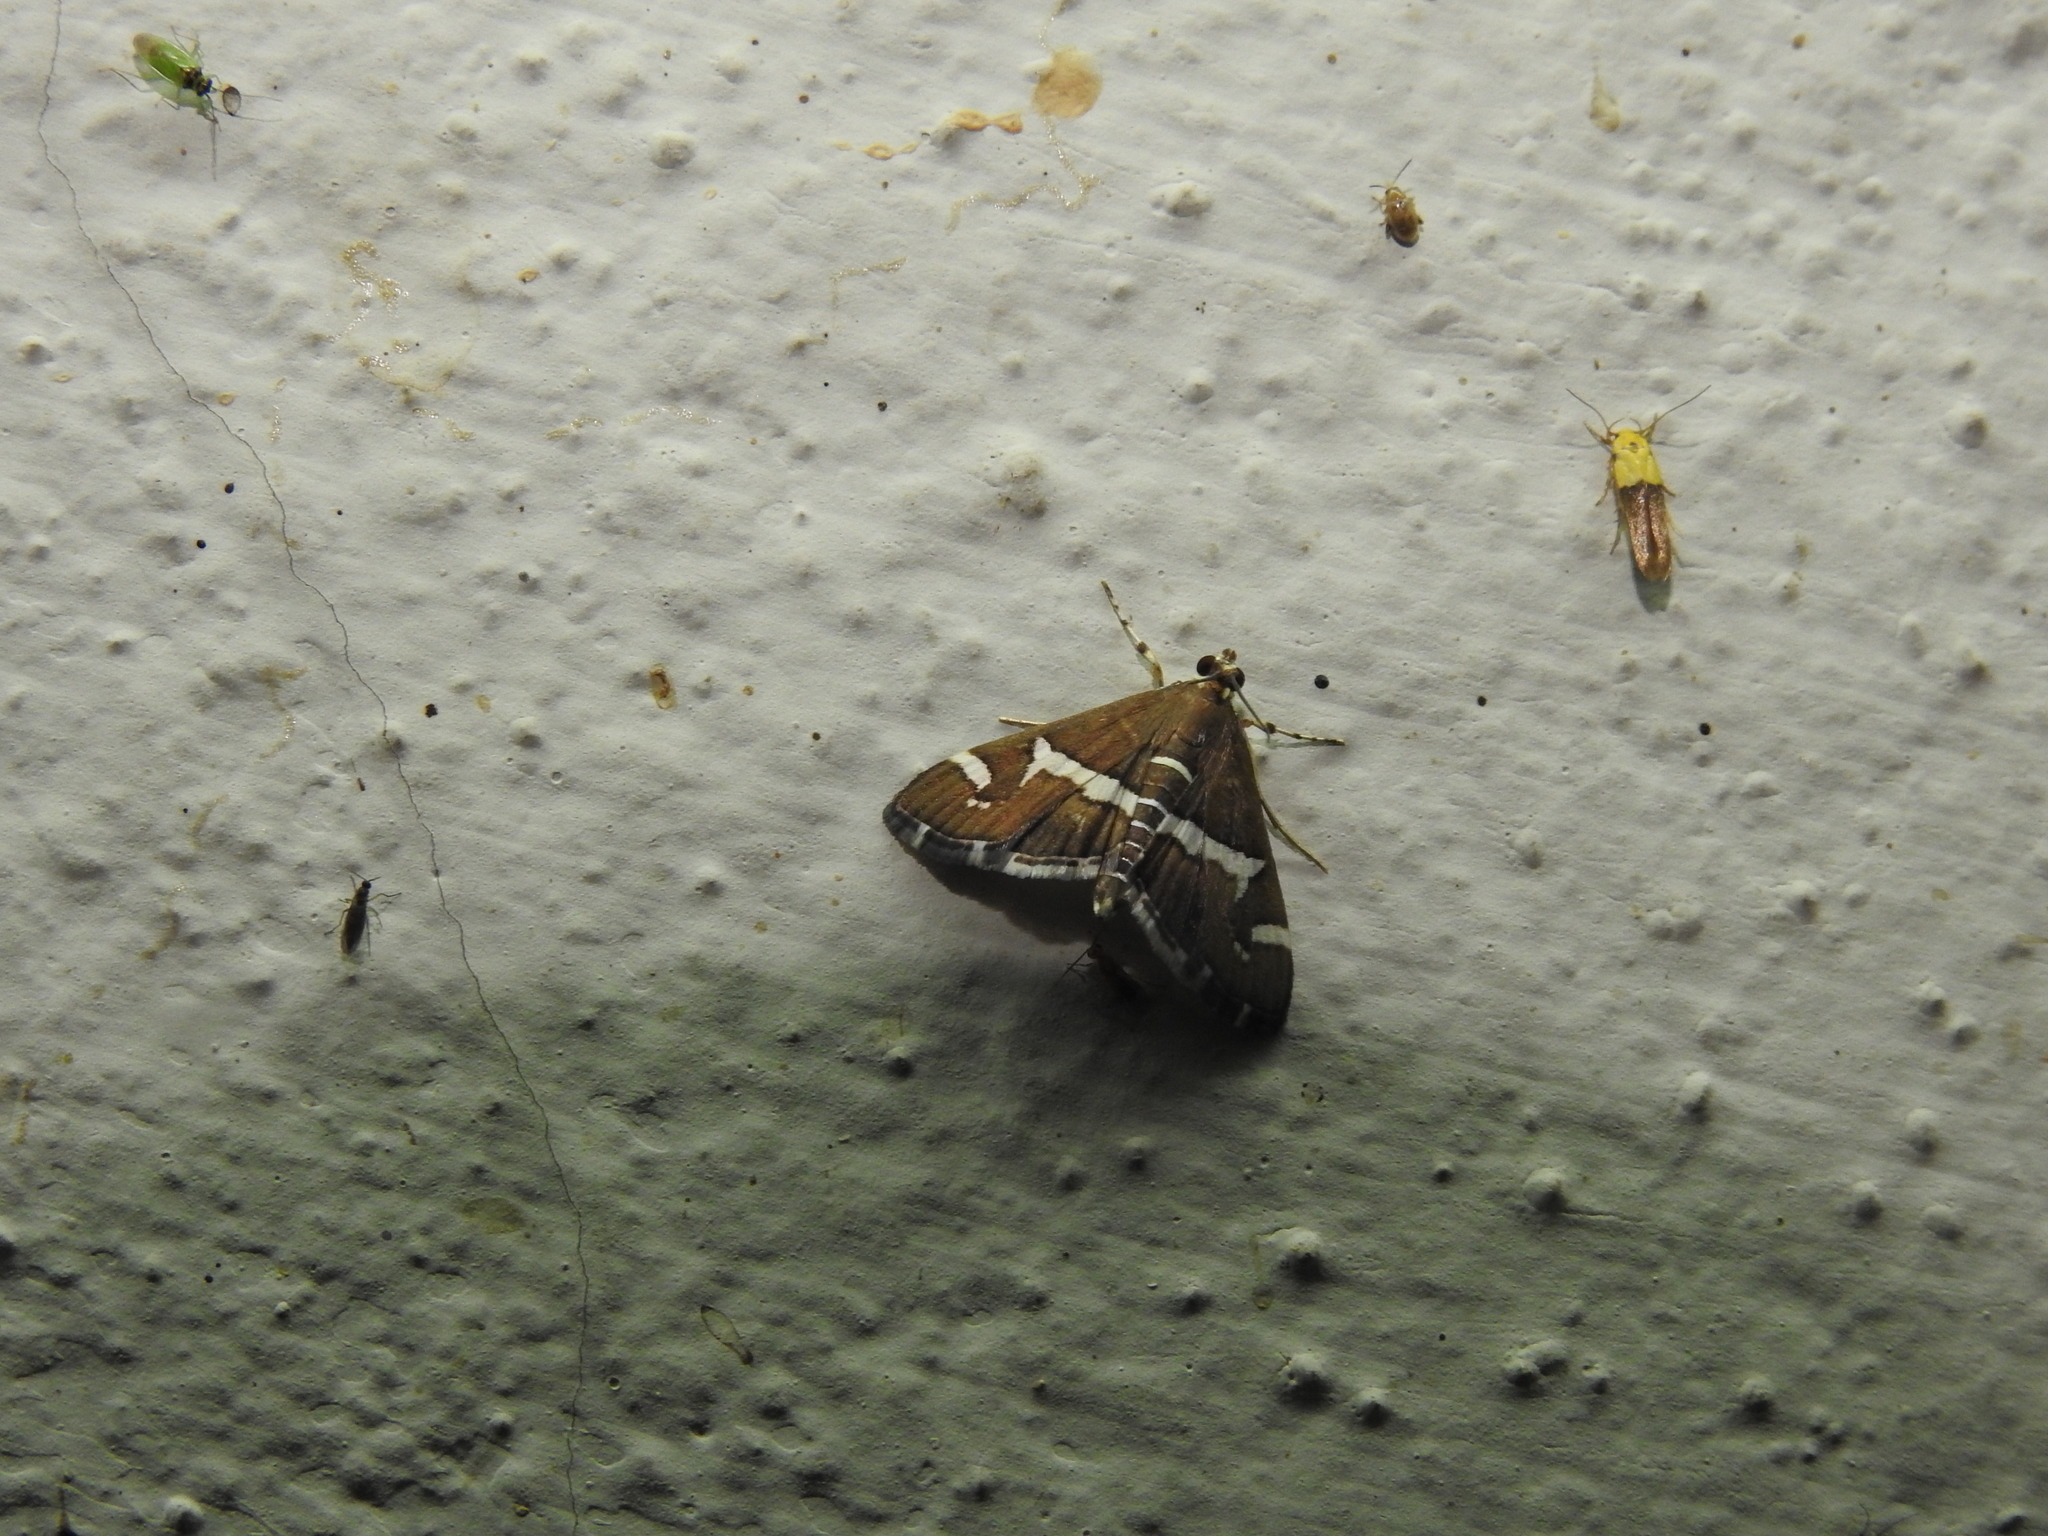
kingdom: Animalia
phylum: Arthropoda
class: Insecta
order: Lepidoptera
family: Crambidae
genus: Spoladea
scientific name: Spoladea recurvalis
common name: Beet webworm moth
